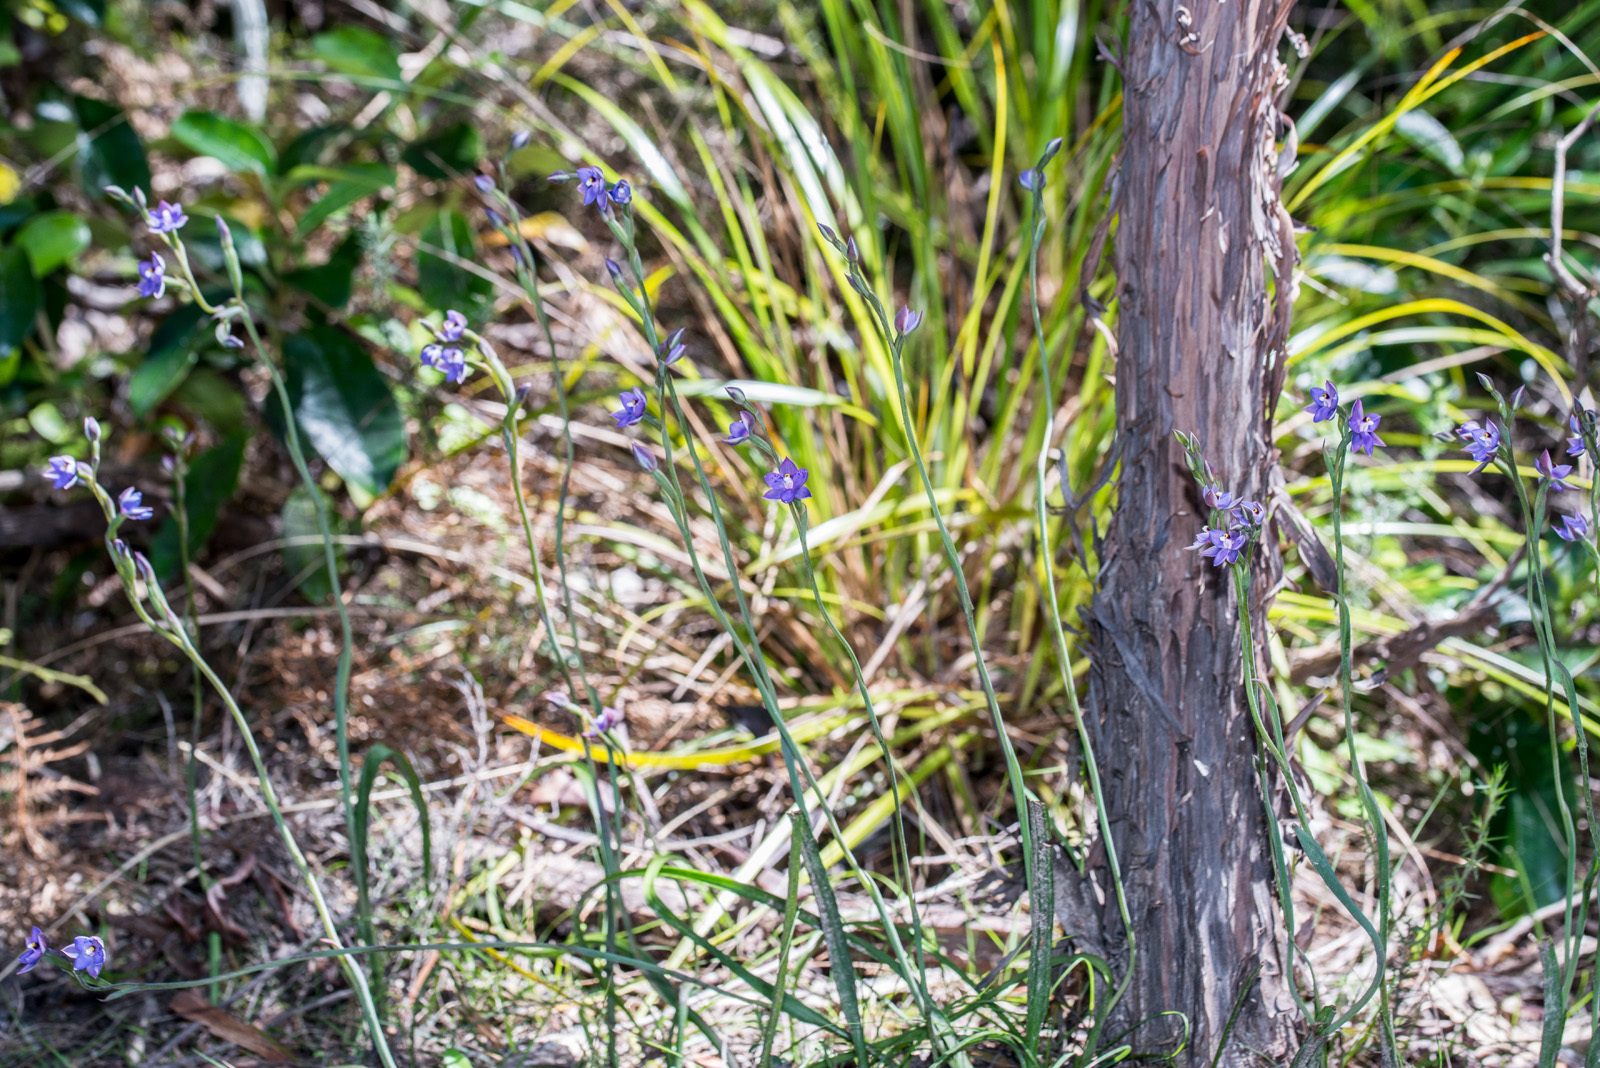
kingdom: Plantae
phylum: Tracheophyta
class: Liliopsida
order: Asparagales
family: Orchidaceae
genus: Thelymitra
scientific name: Thelymitra nervosa
